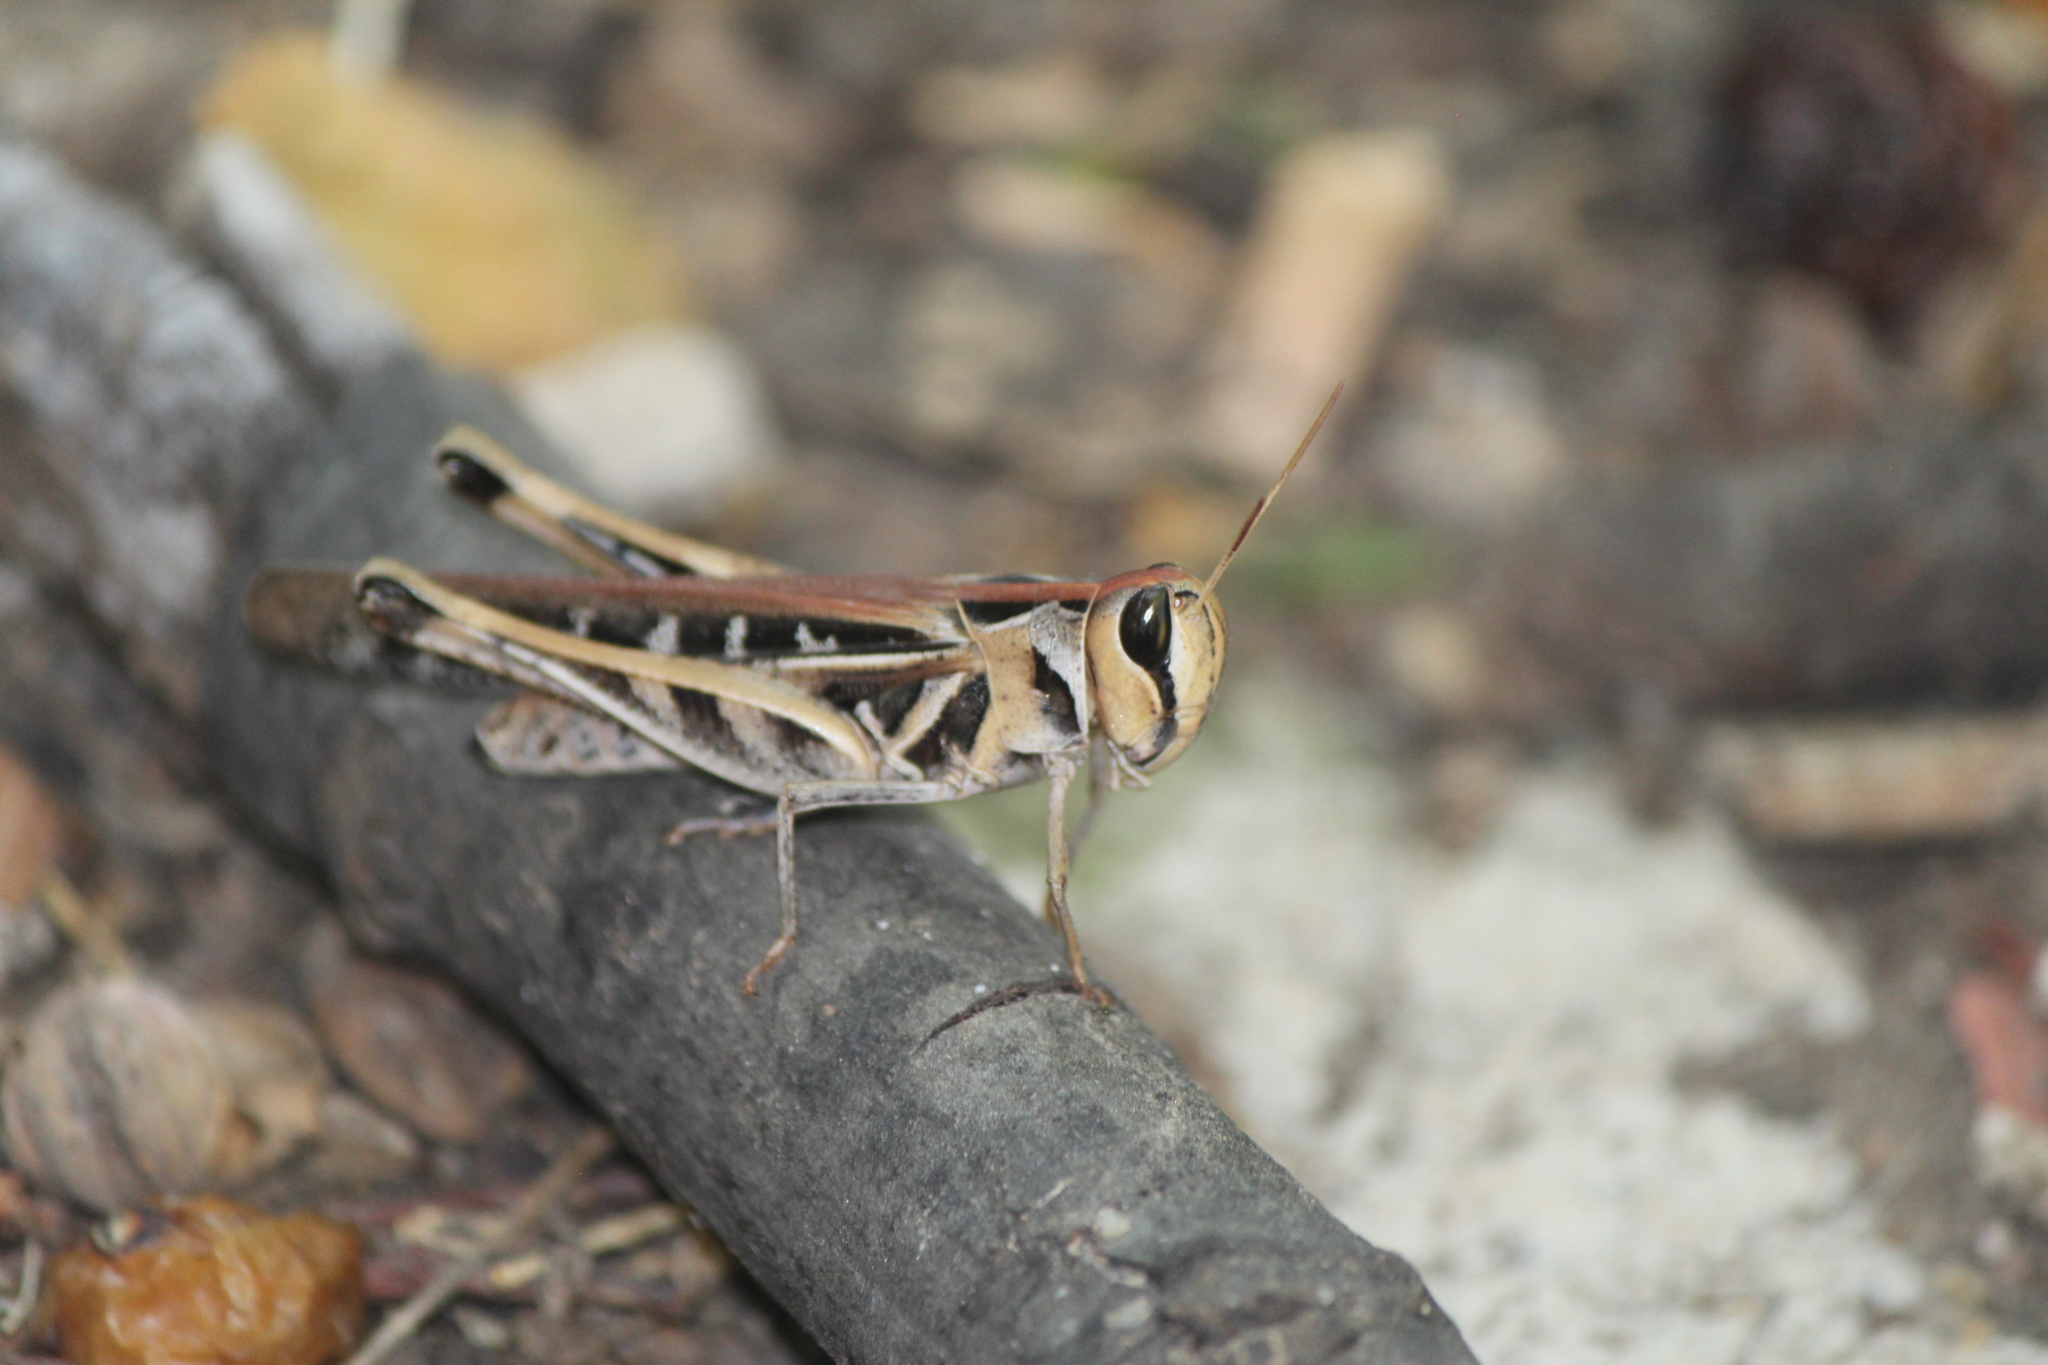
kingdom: Animalia
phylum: Arthropoda
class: Insecta
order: Orthoptera
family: Acrididae
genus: Rhammatocerus
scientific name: Rhammatocerus viatorius
